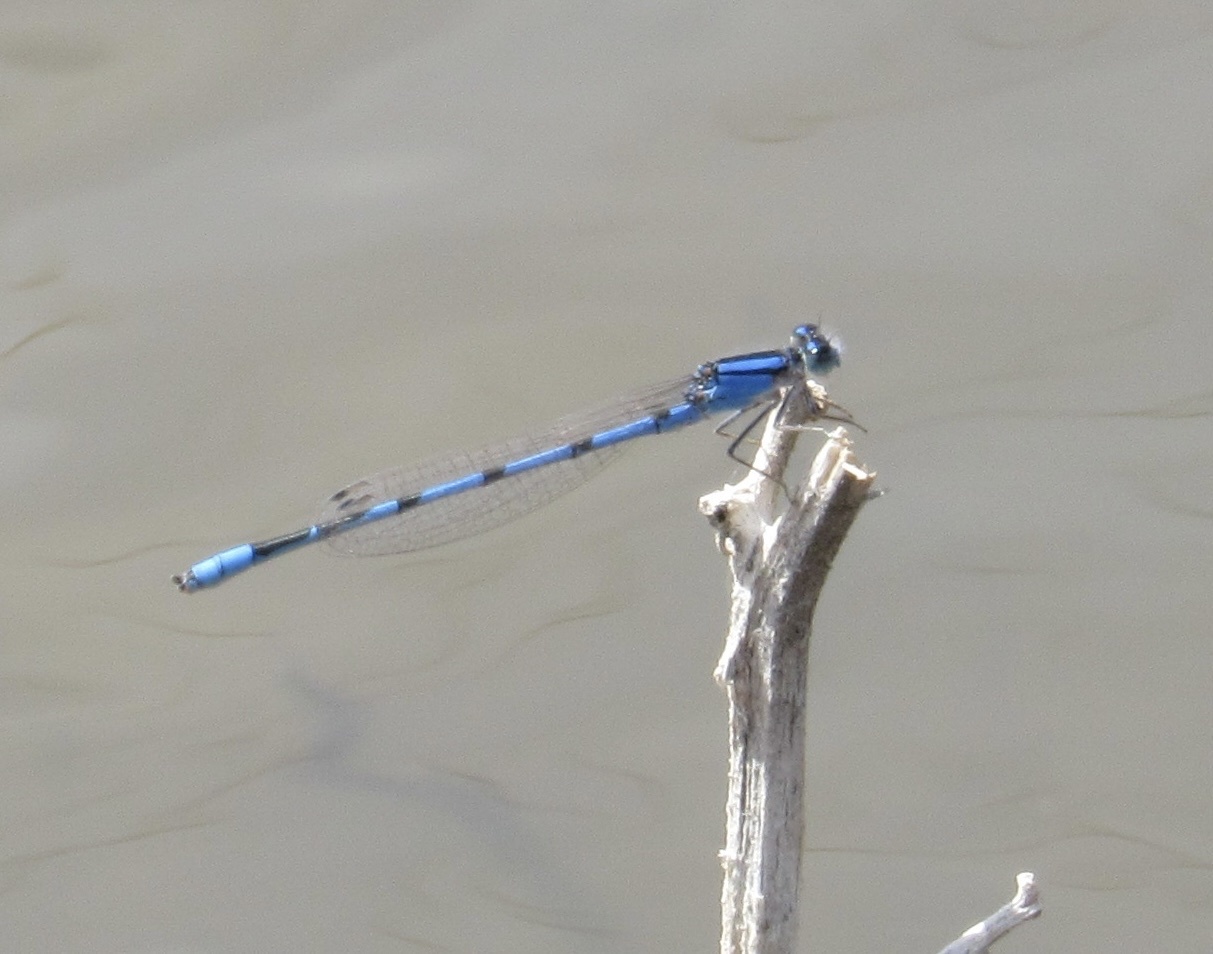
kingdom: Animalia
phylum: Arthropoda
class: Insecta
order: Odonata
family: Coenagrionidae
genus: Enallagma
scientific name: Enallagma civile
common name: Damselfly
